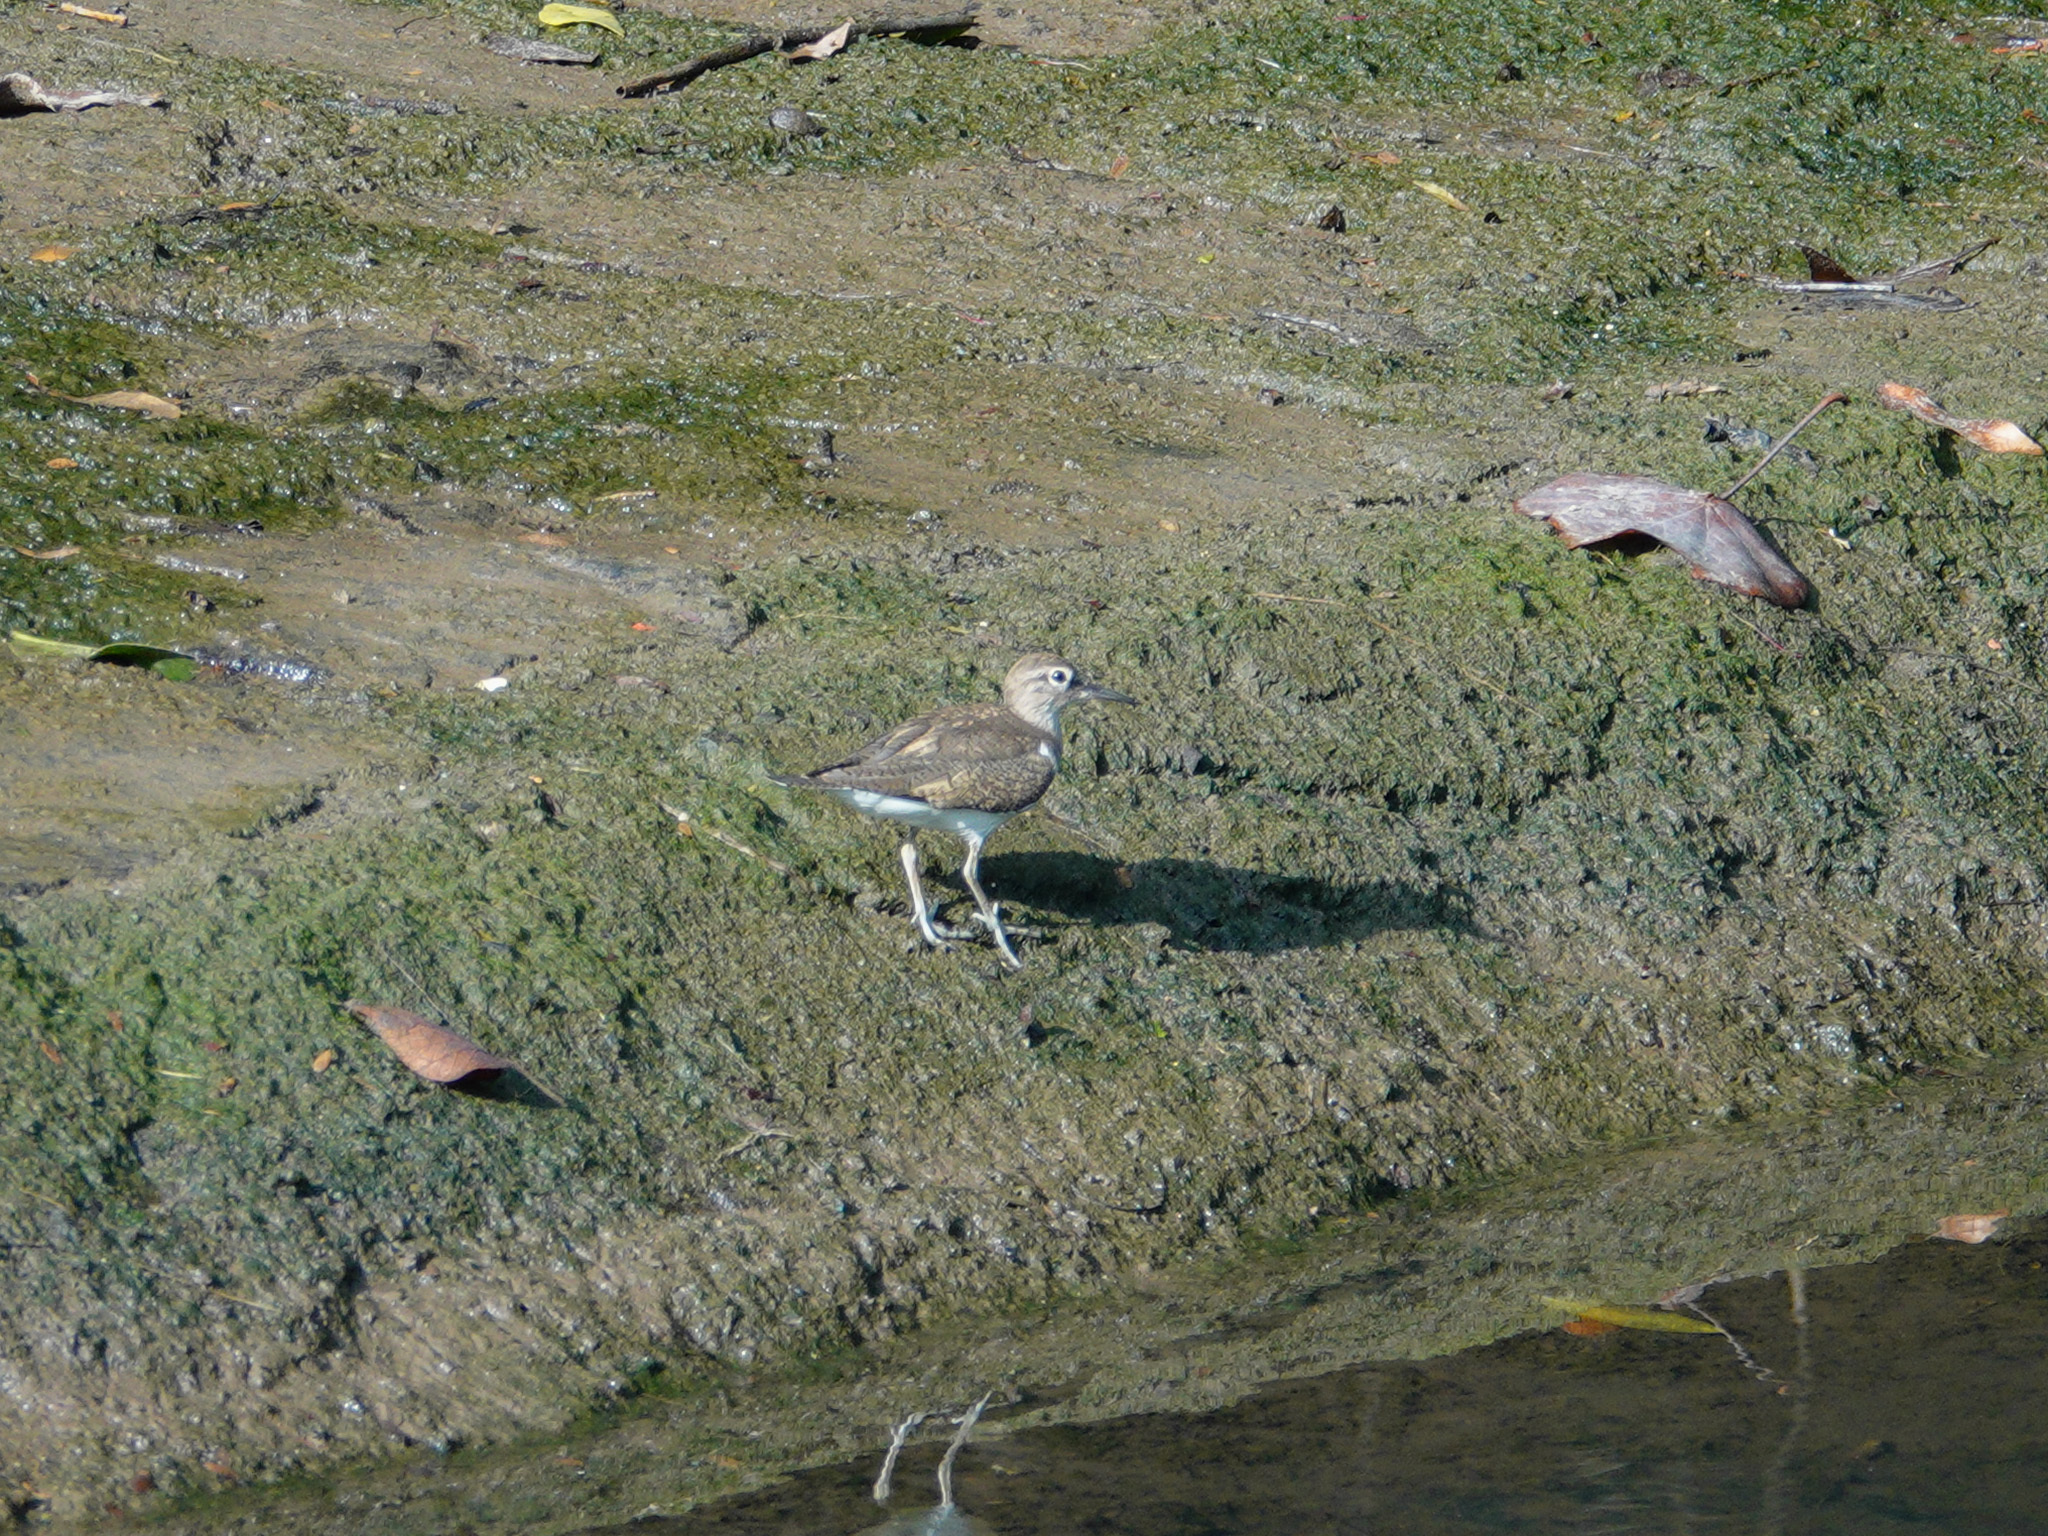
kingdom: Animalia
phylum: Chordata
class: Aves
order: Charadriiformes
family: Scolopacidae
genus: Actitis
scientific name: Actitis hypoleucos
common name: Common sandpiper
